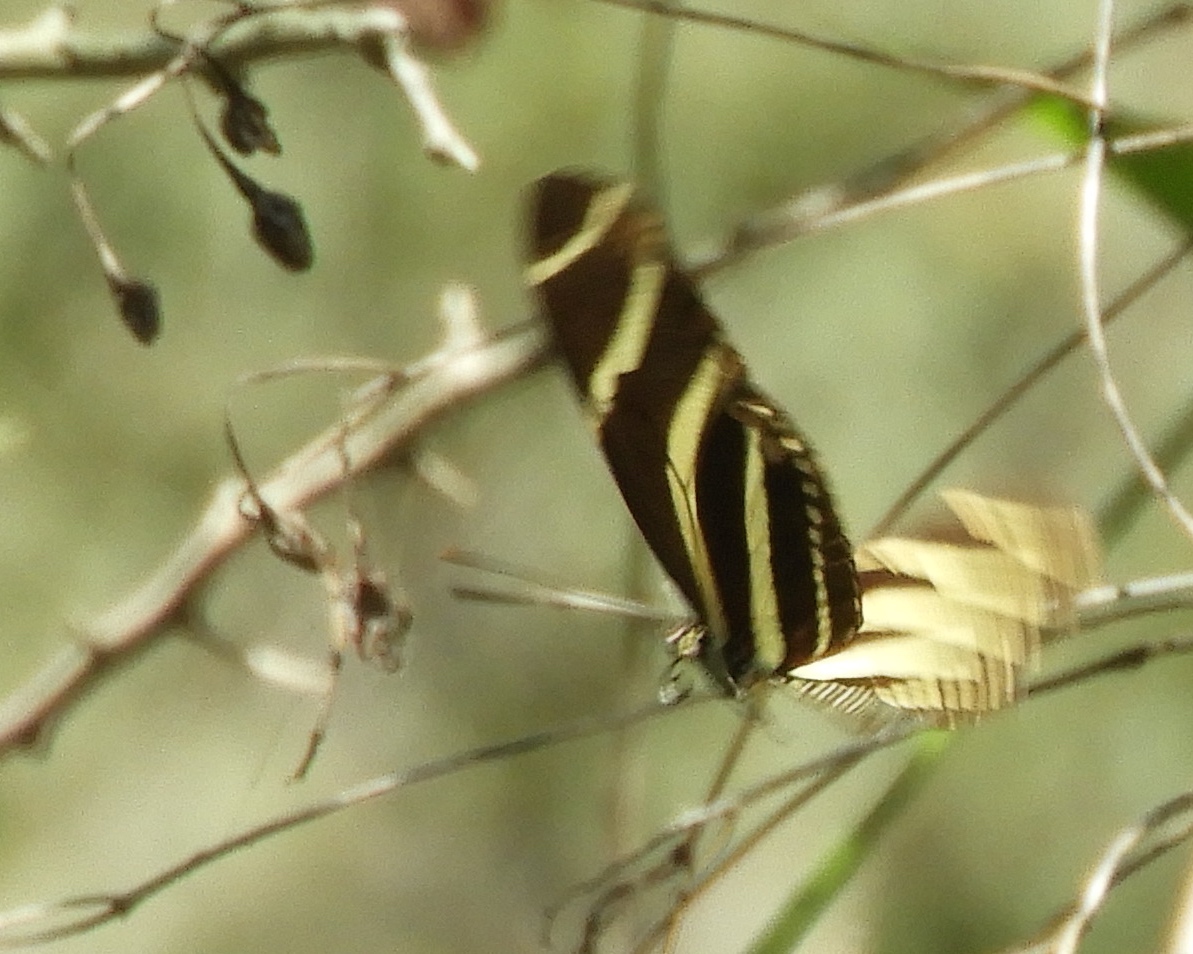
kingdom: Animalia
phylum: Arthropoda
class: Insecta
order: Lepidoptera
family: Nymphalidae
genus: Heliconius
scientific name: Heliconius charithonia
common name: Zebra long wing
